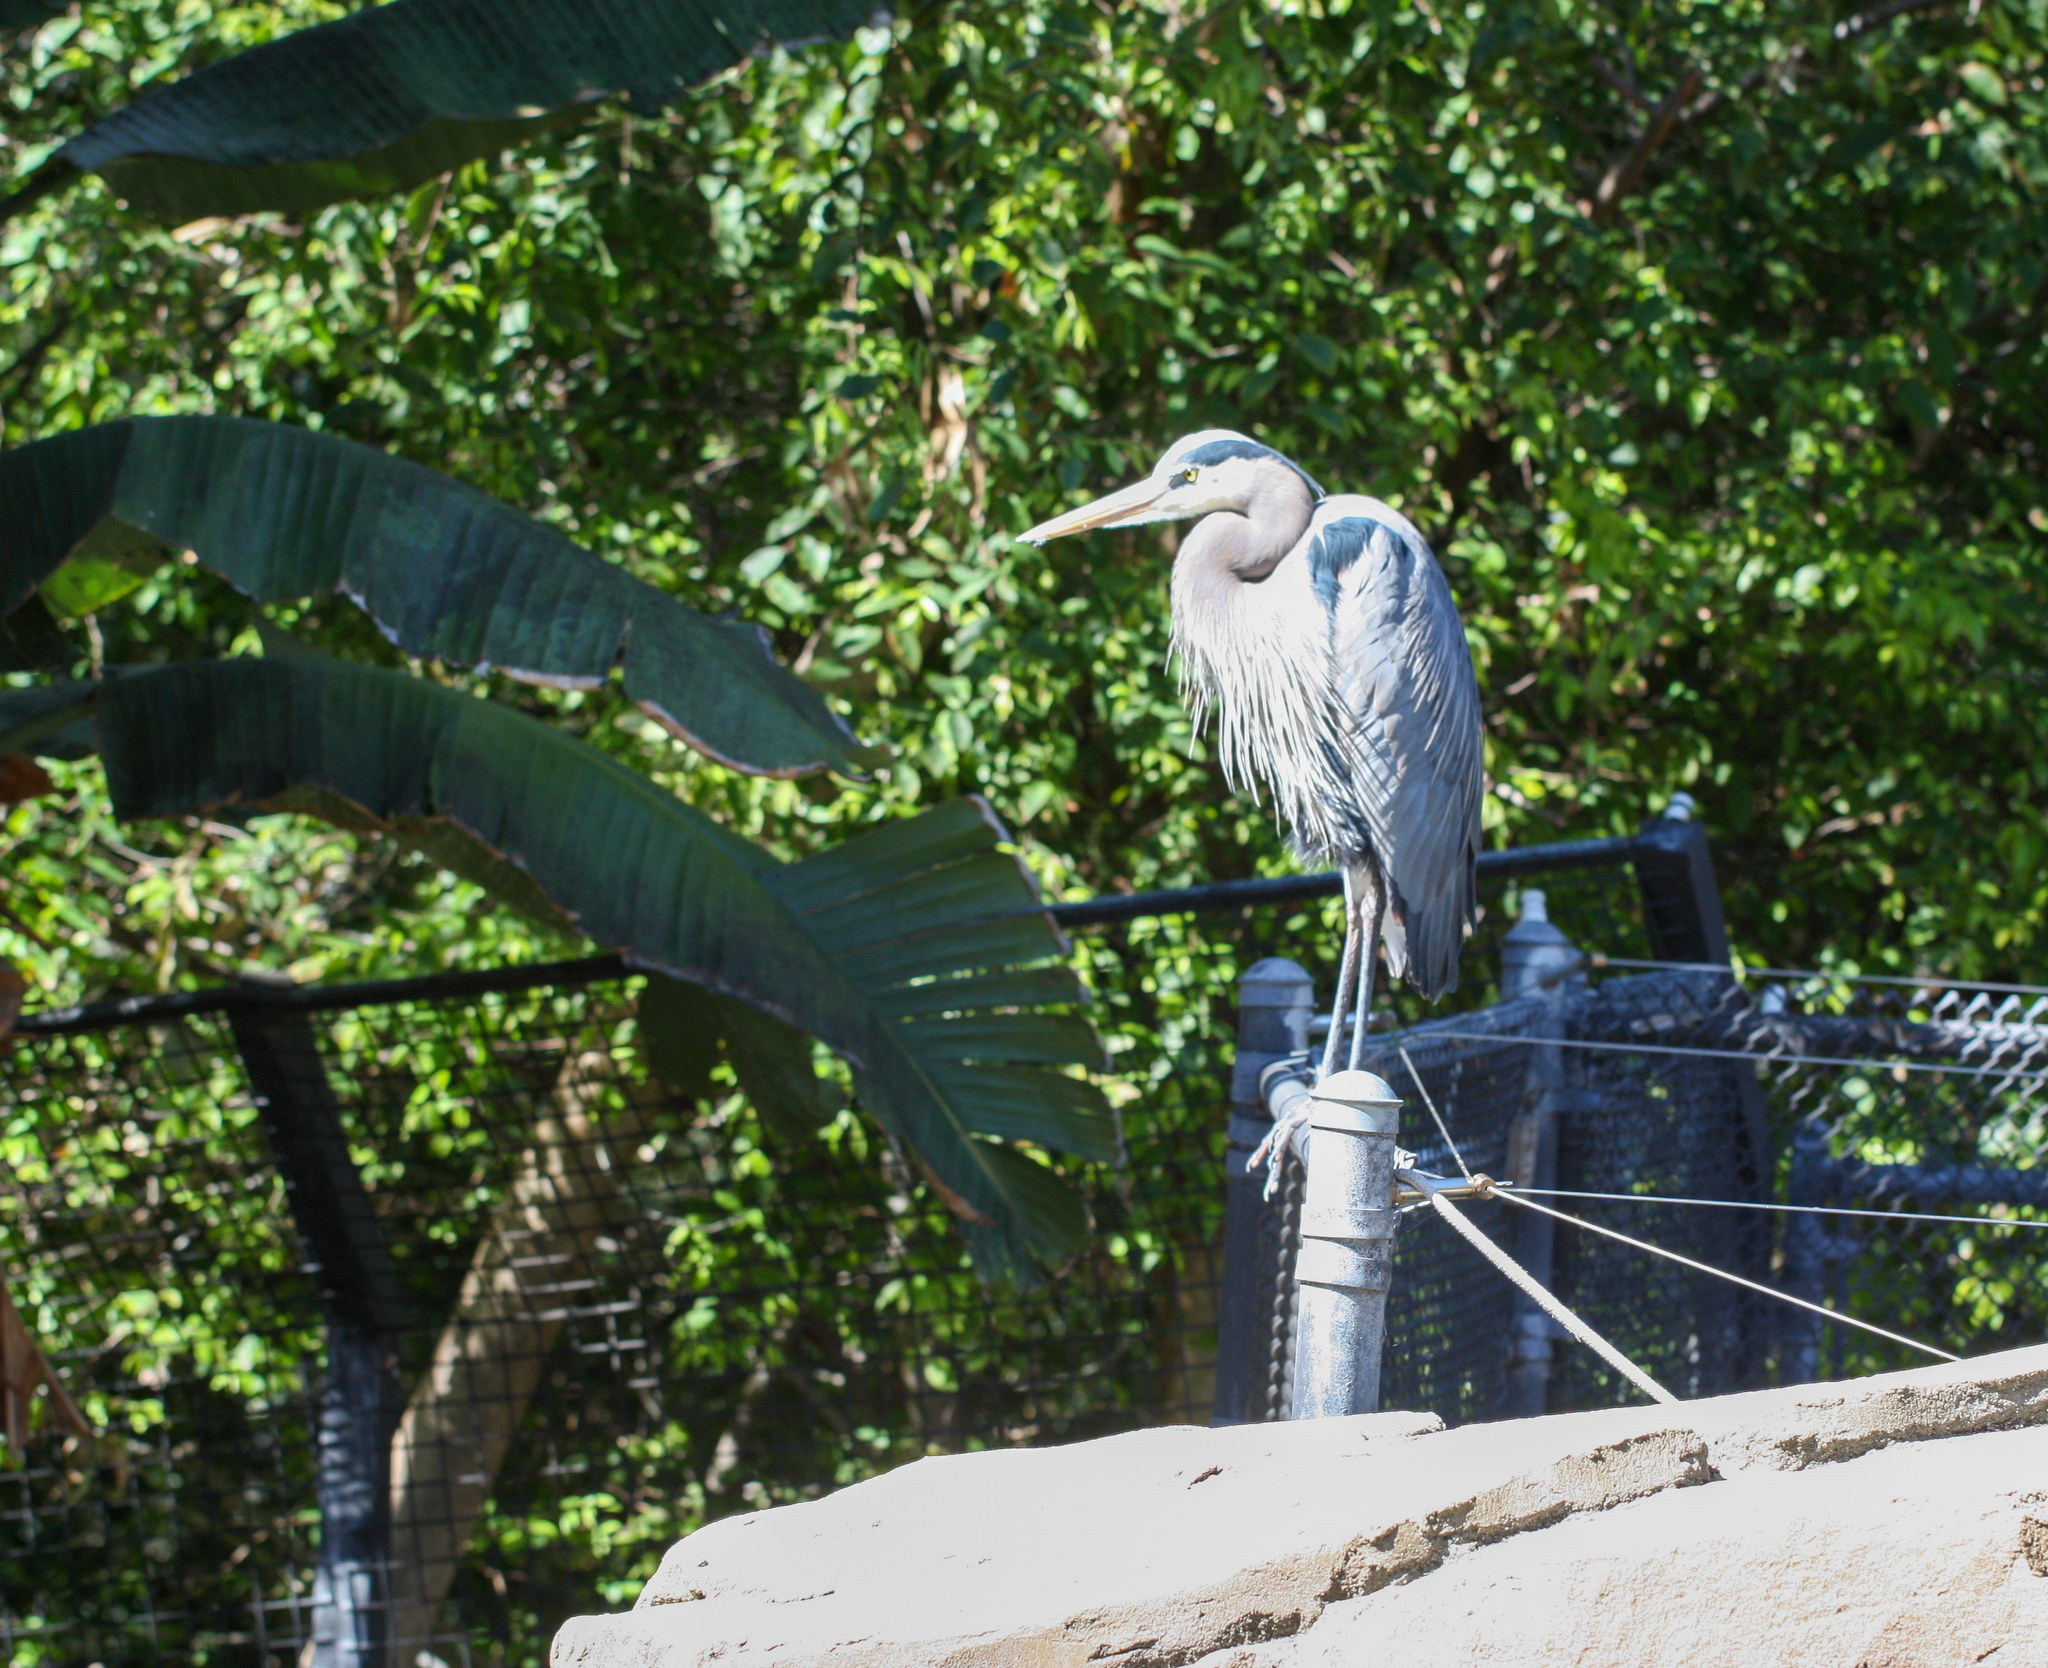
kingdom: Animalia
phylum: Chordata
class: Aves
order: Pelecaniformes
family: Ardeidae
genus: Ardea
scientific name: Ardea herodias
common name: Great blue heron
